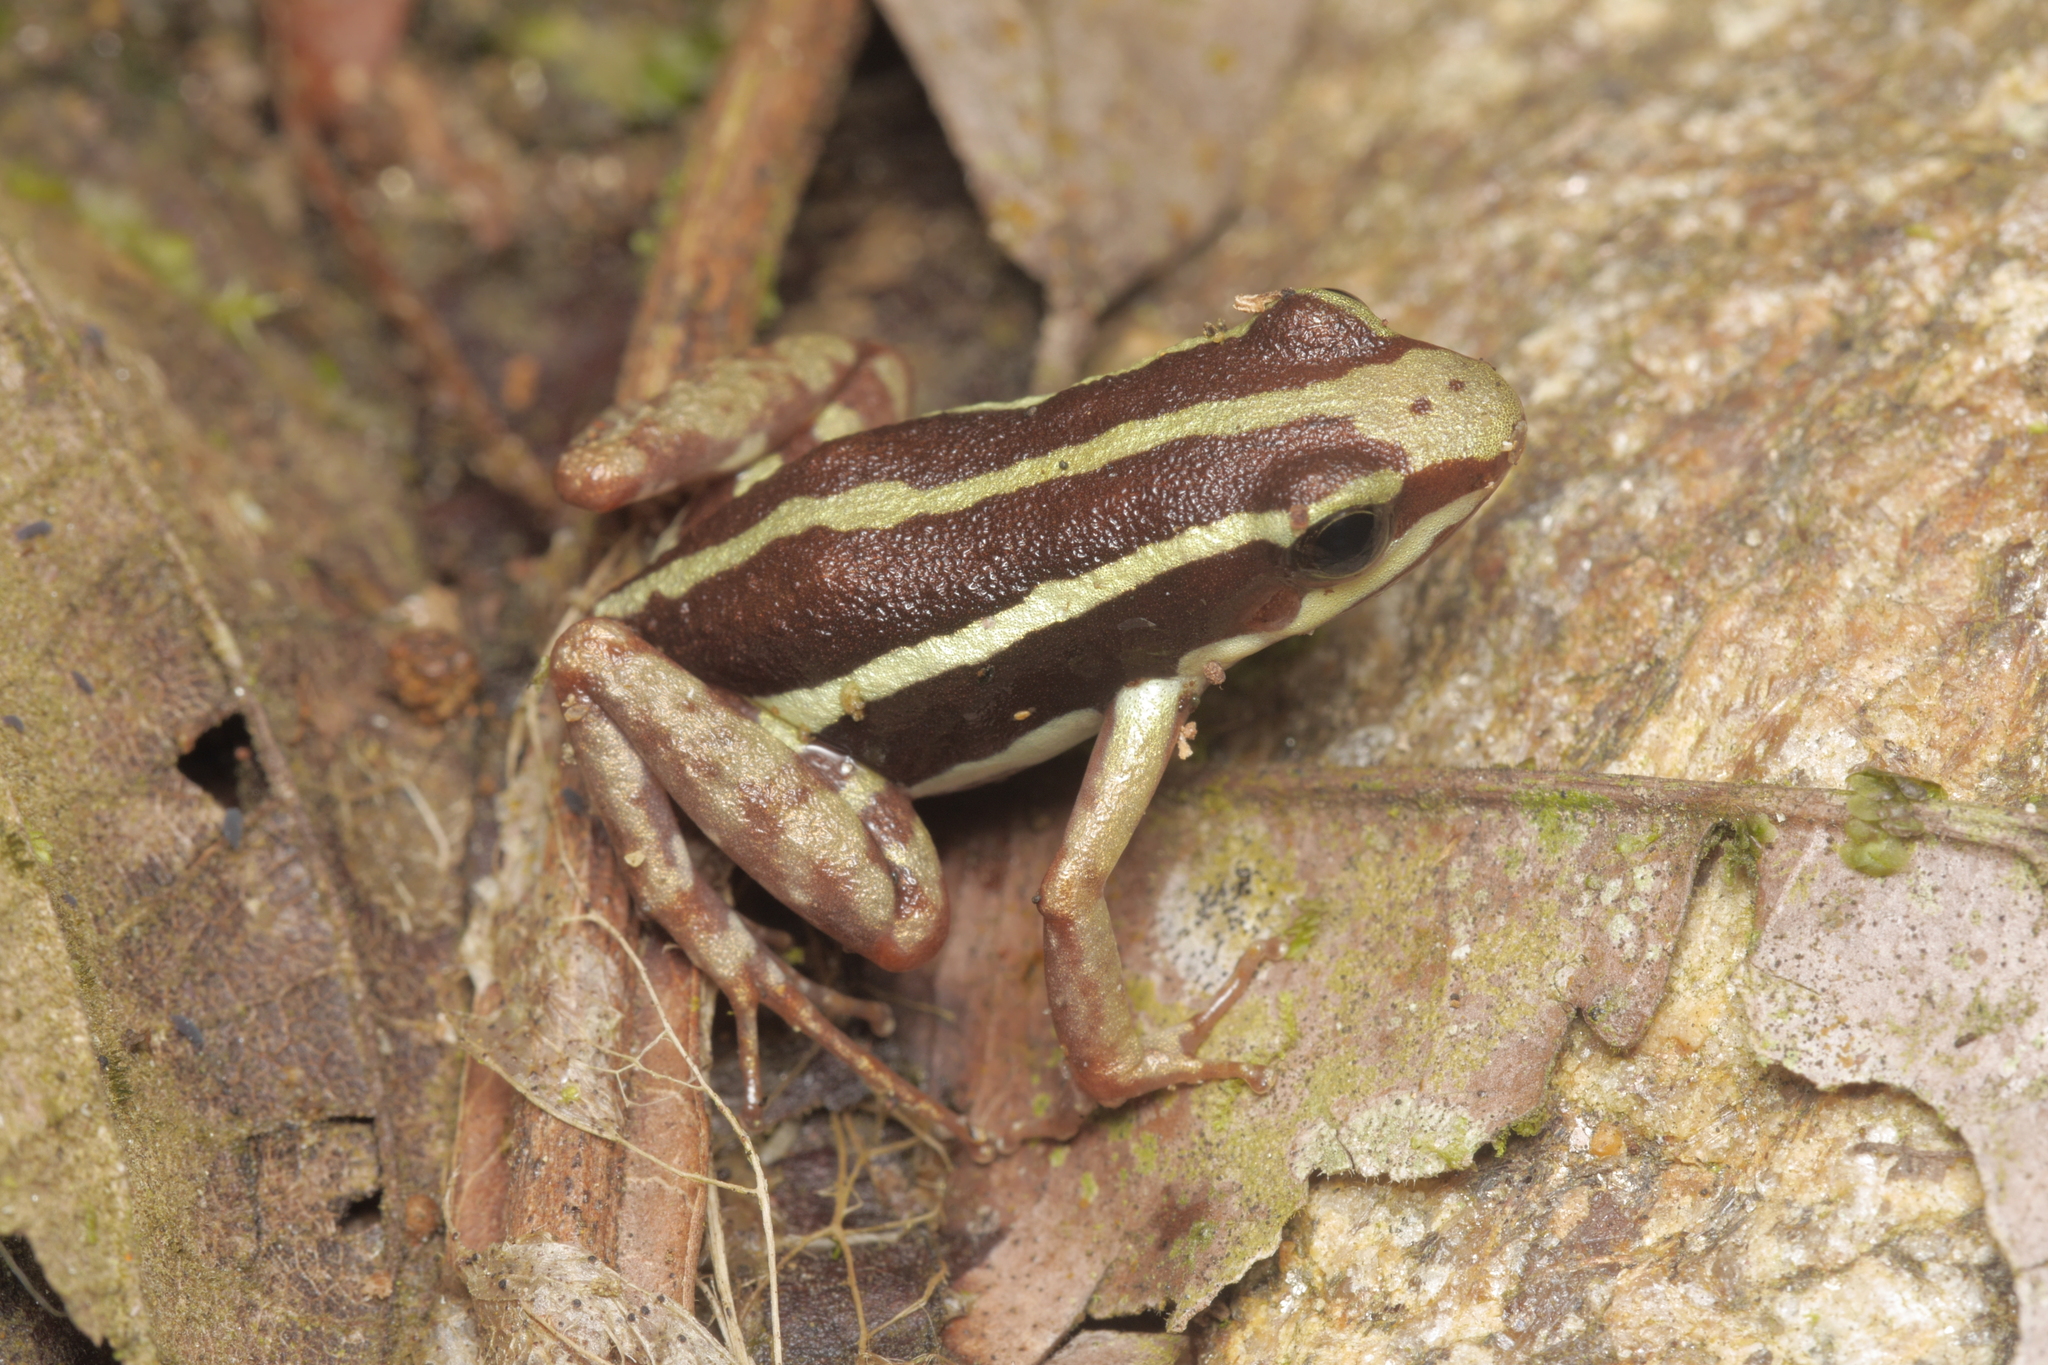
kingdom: Animalia
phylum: Chordata
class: Amphibia
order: Anura
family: Dendrobatidae
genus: Epipedobates
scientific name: Epipedobates anthonyi
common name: Anthony´s poison-arrow frog
